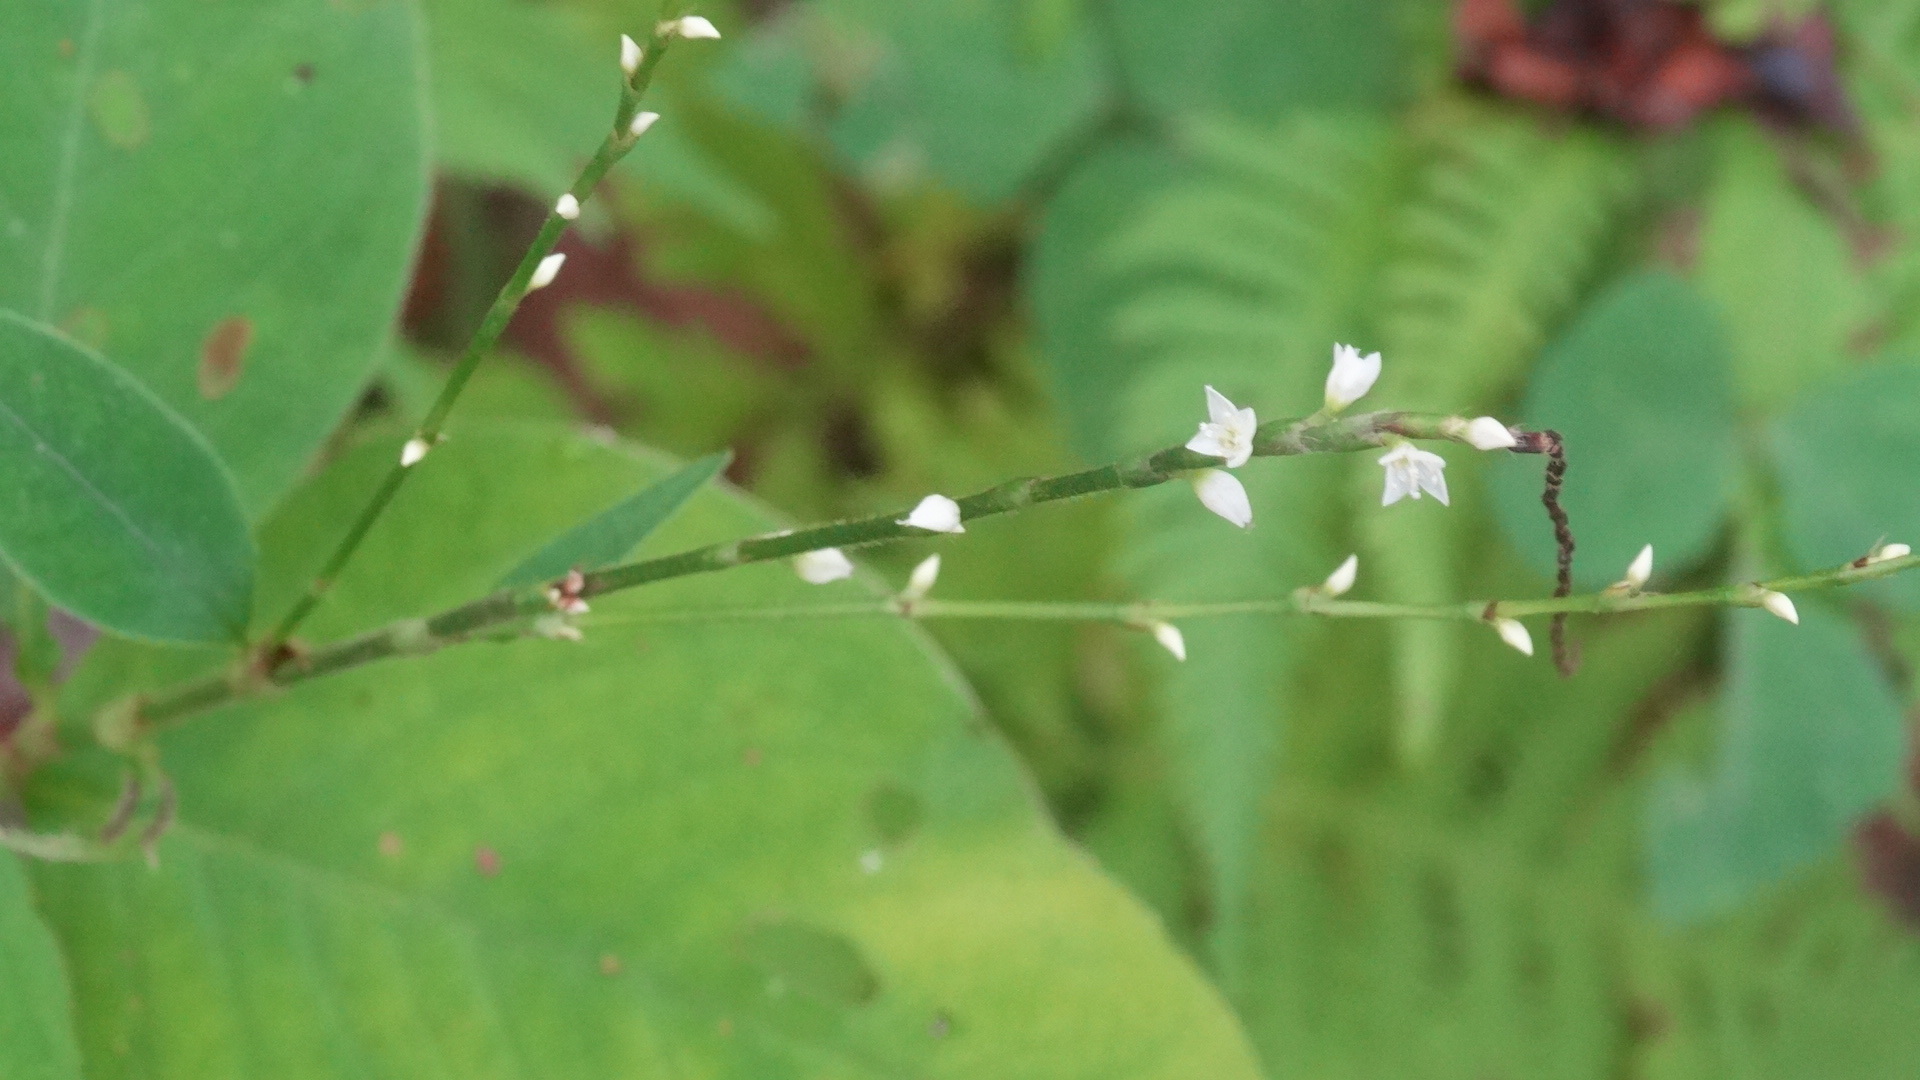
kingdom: Plantae
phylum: Tracheophyta
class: Magnoliopsida
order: Caryophyllales
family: Polygonaceae
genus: Persicaria
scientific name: Persicaria virginiana
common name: Jumpseed
